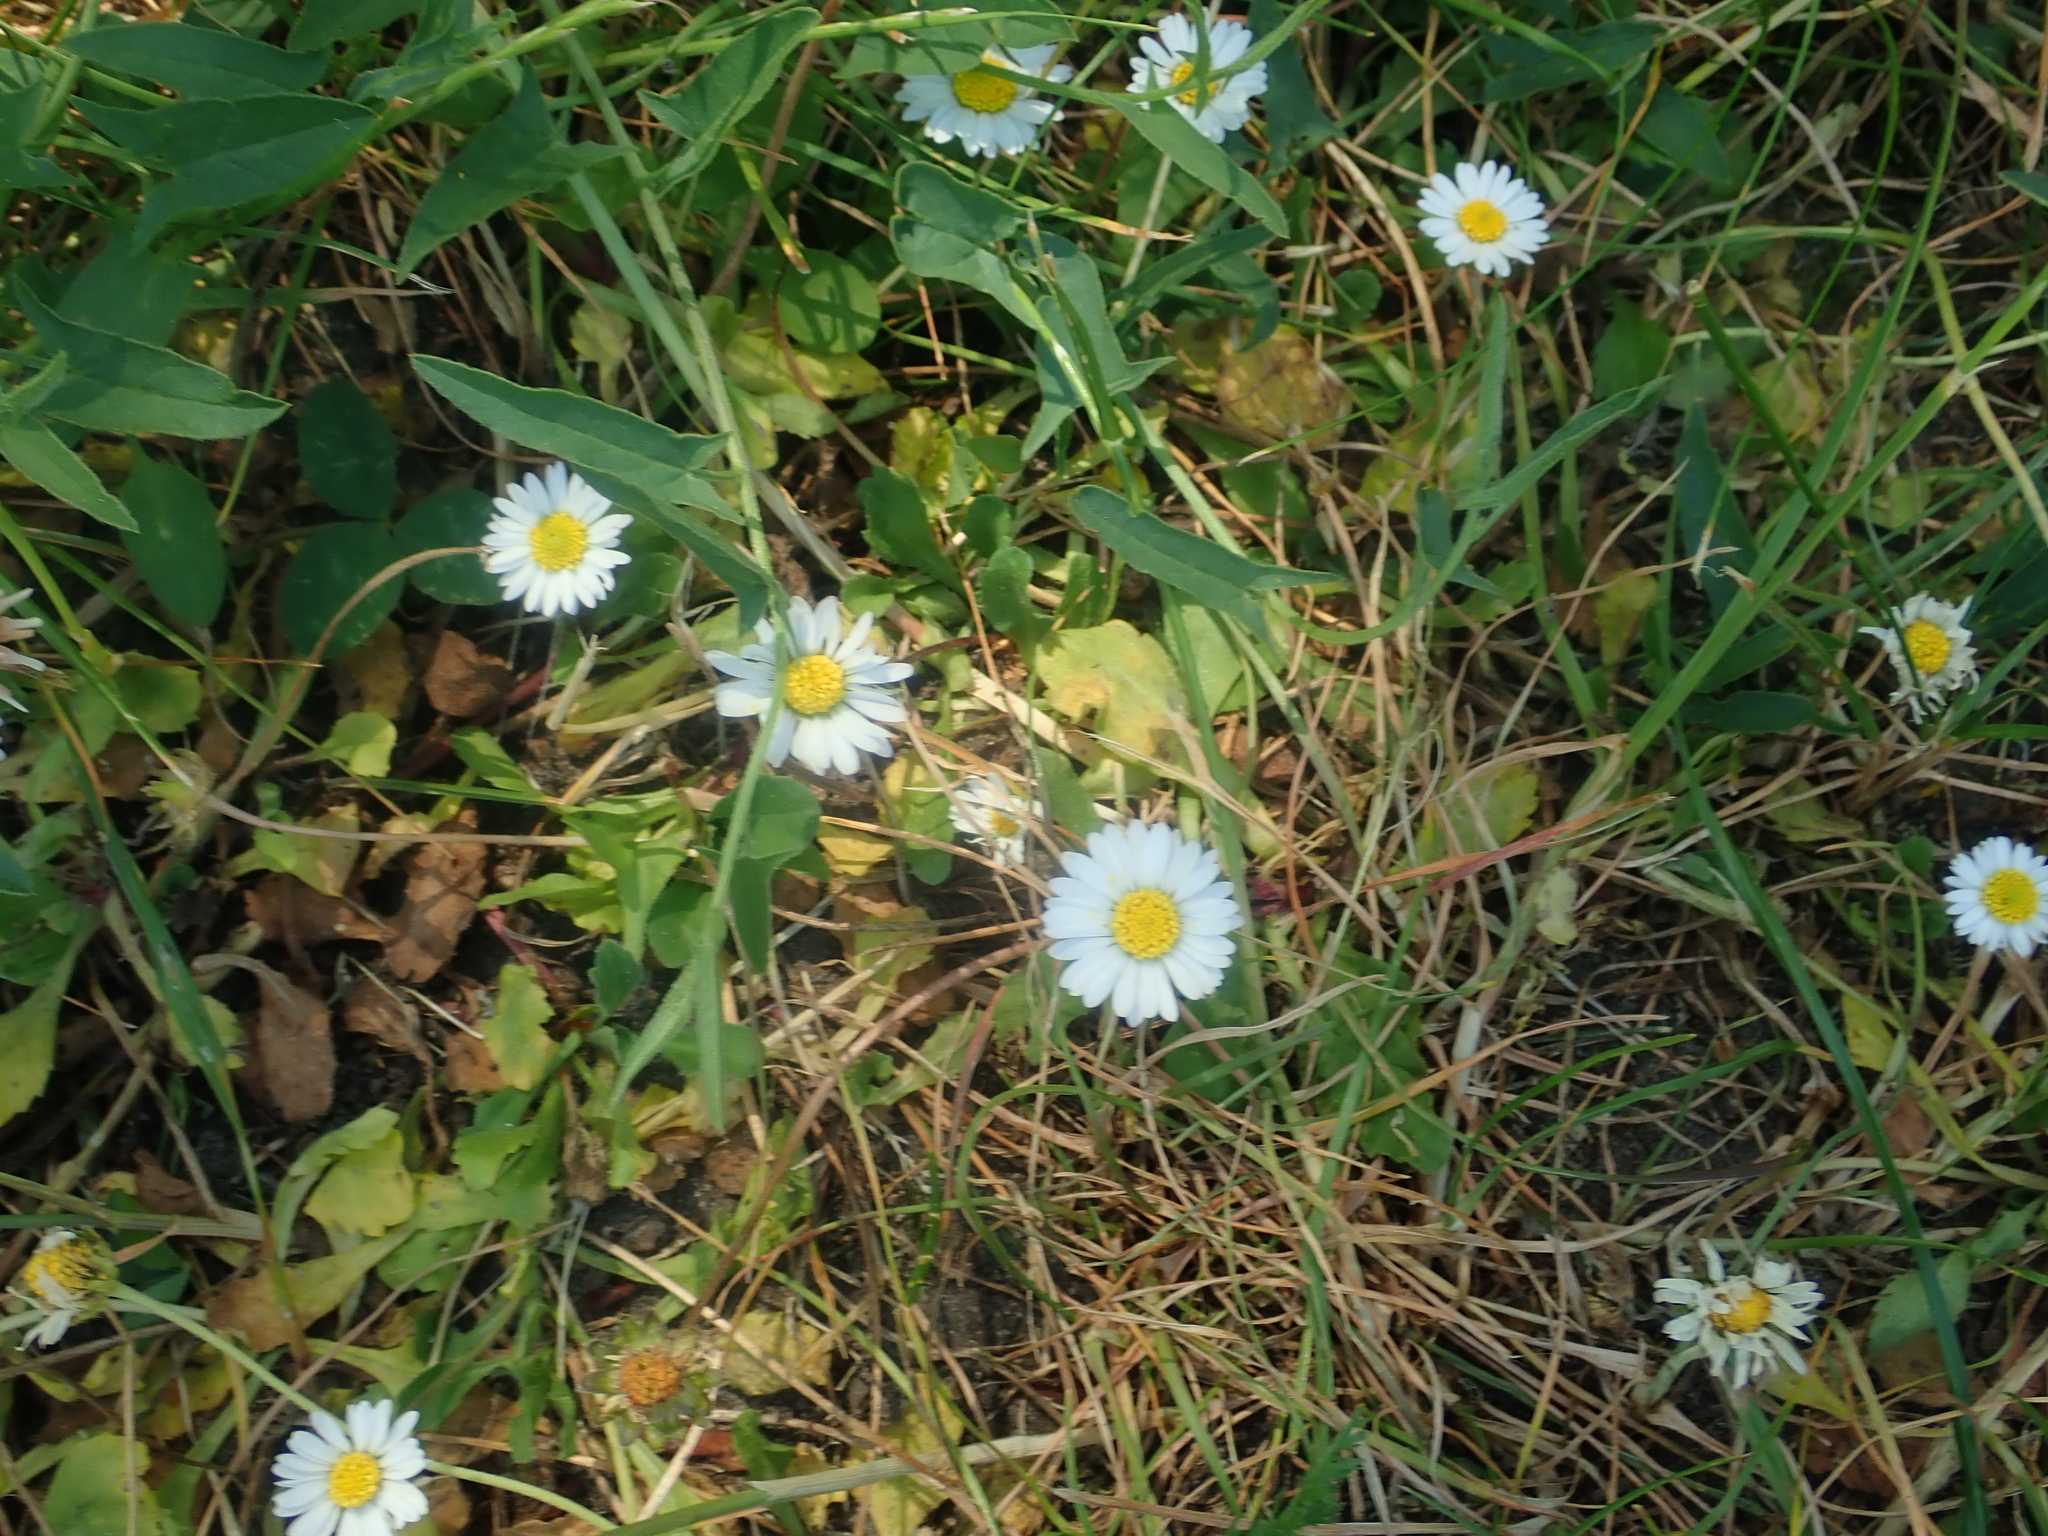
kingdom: Plantae
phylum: Tracheophyta
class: Magnoliopsida
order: Asterales
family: Asteraceae
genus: Bellis
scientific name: Bellis perennis
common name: Lawndaisy
